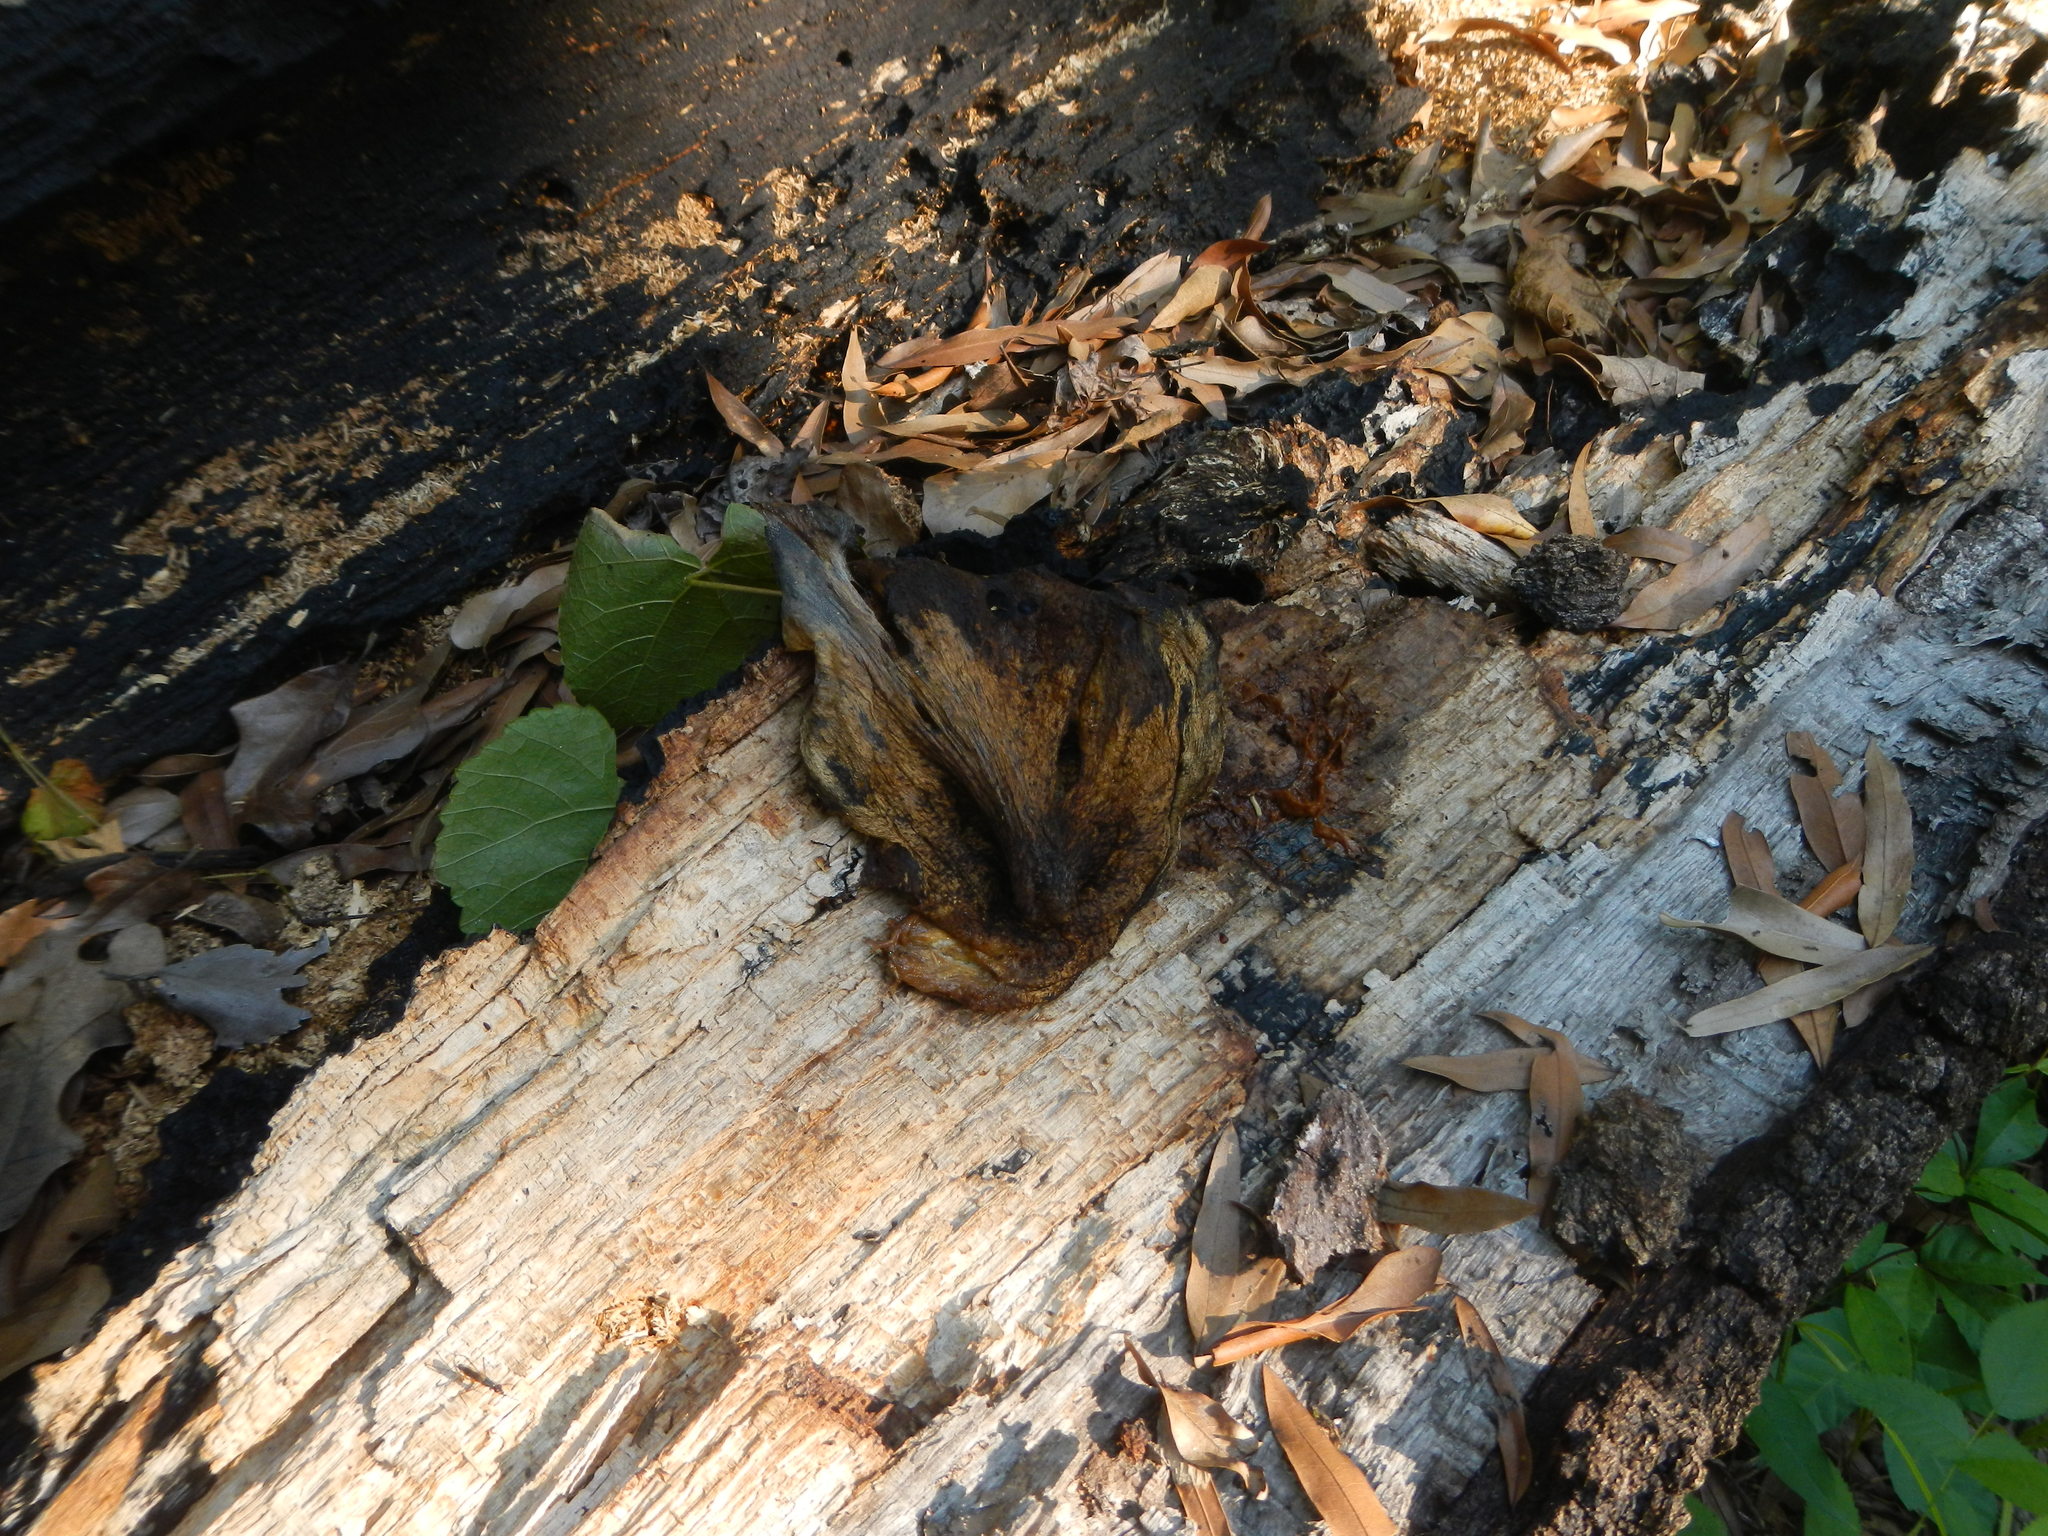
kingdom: Fungi
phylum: Basidiomycota
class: Agaricomycetes
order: Agaricales
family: Pluteaceae
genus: Volvariella
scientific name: Volvariella bombycina
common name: Silky rosegill
